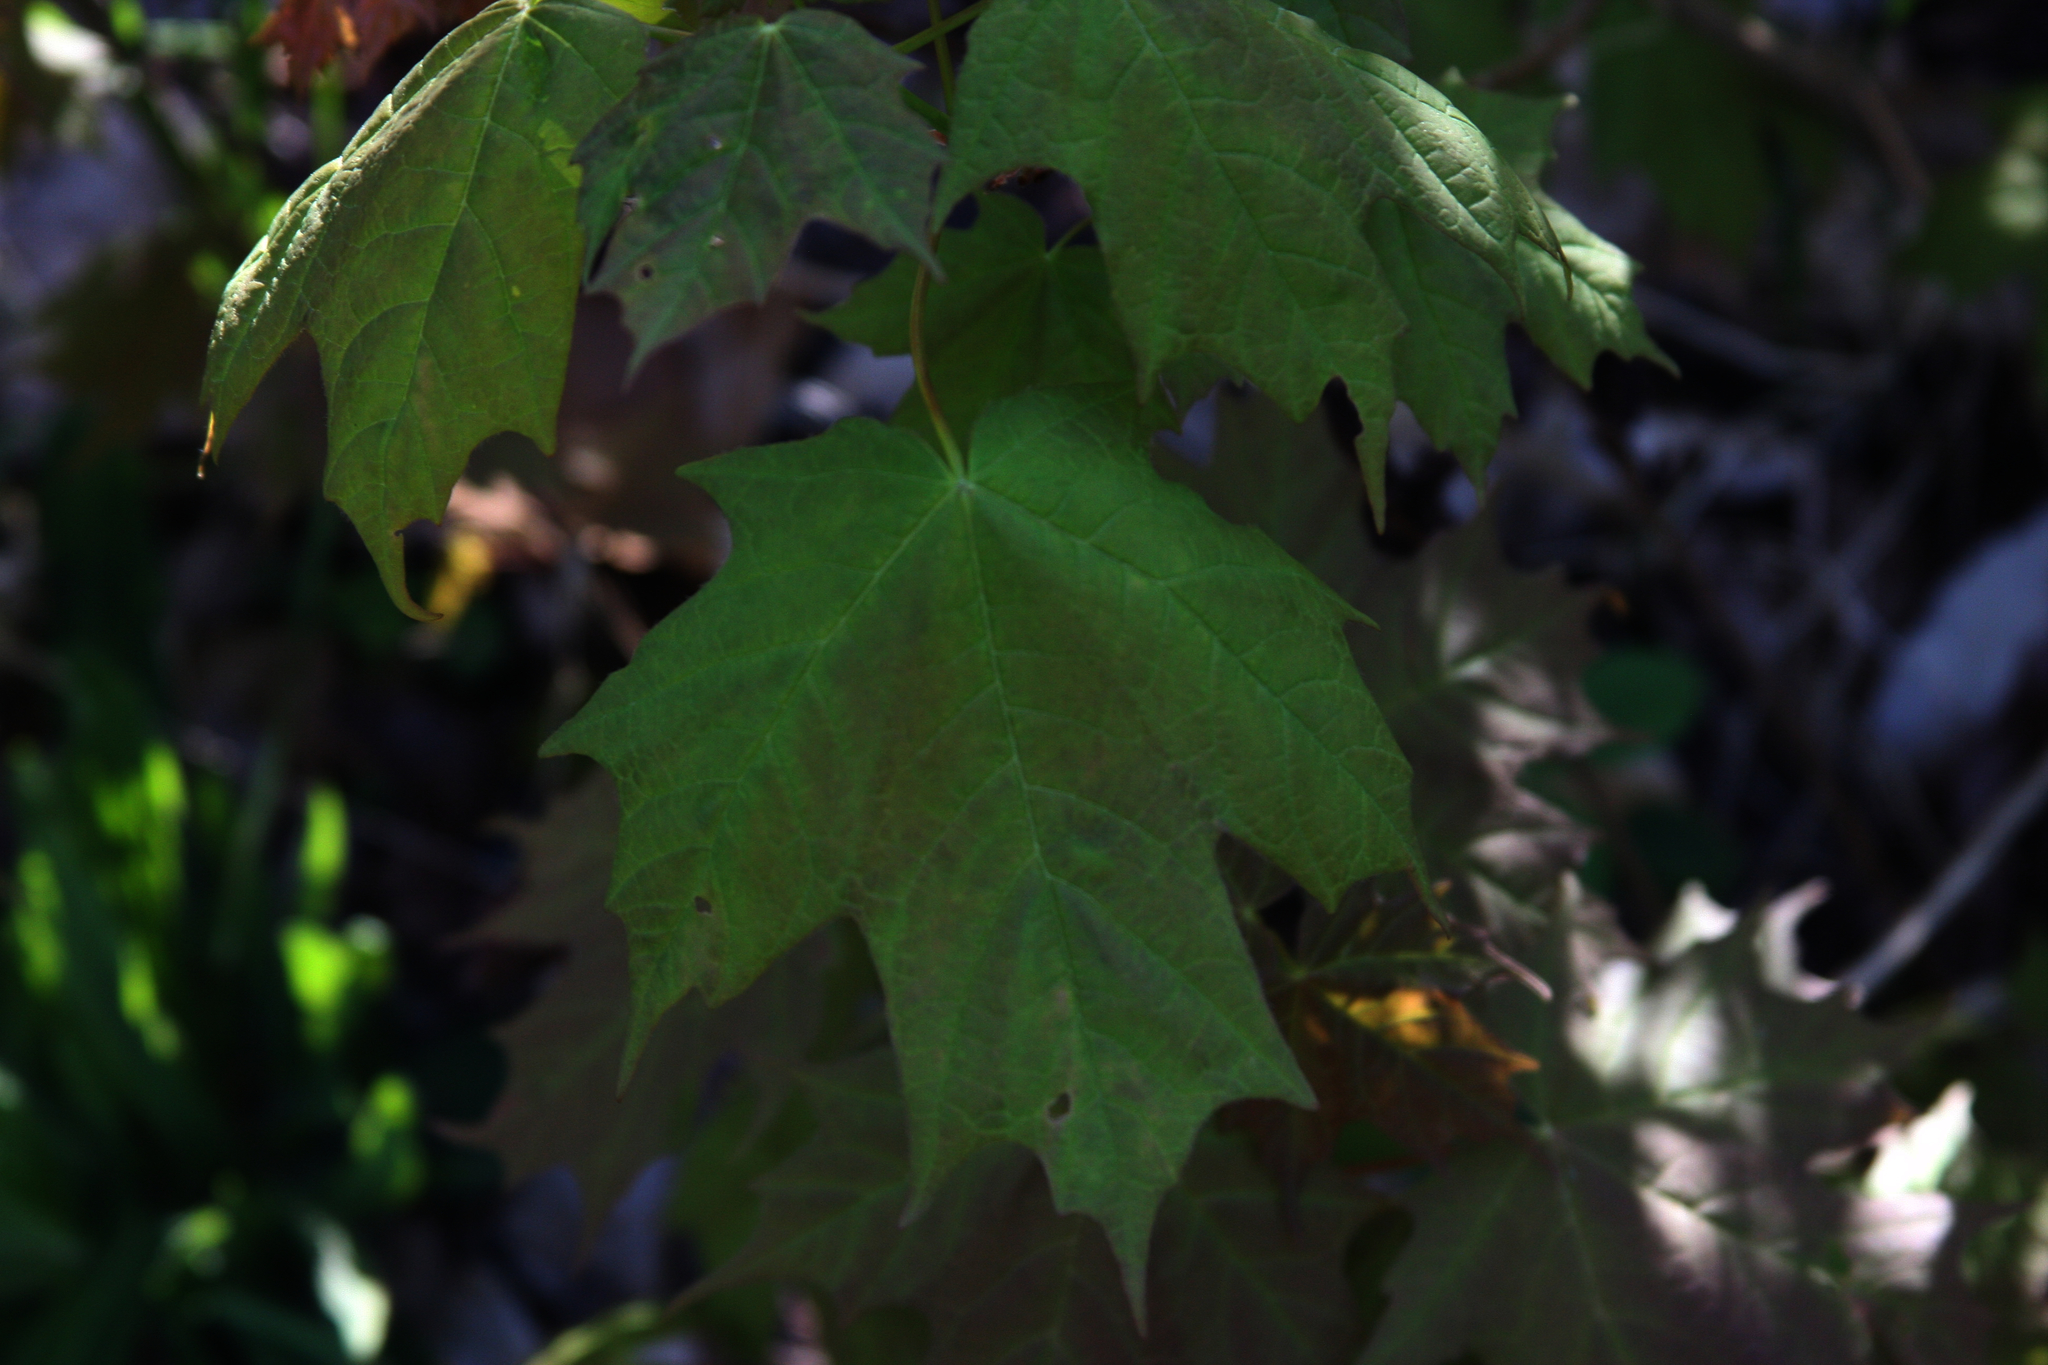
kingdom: Plantae
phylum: Tracheophyta
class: Magnoliopsida
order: Sapindales
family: Sapindaceae
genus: Acer
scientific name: Acer saccharum
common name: Sugar maple
